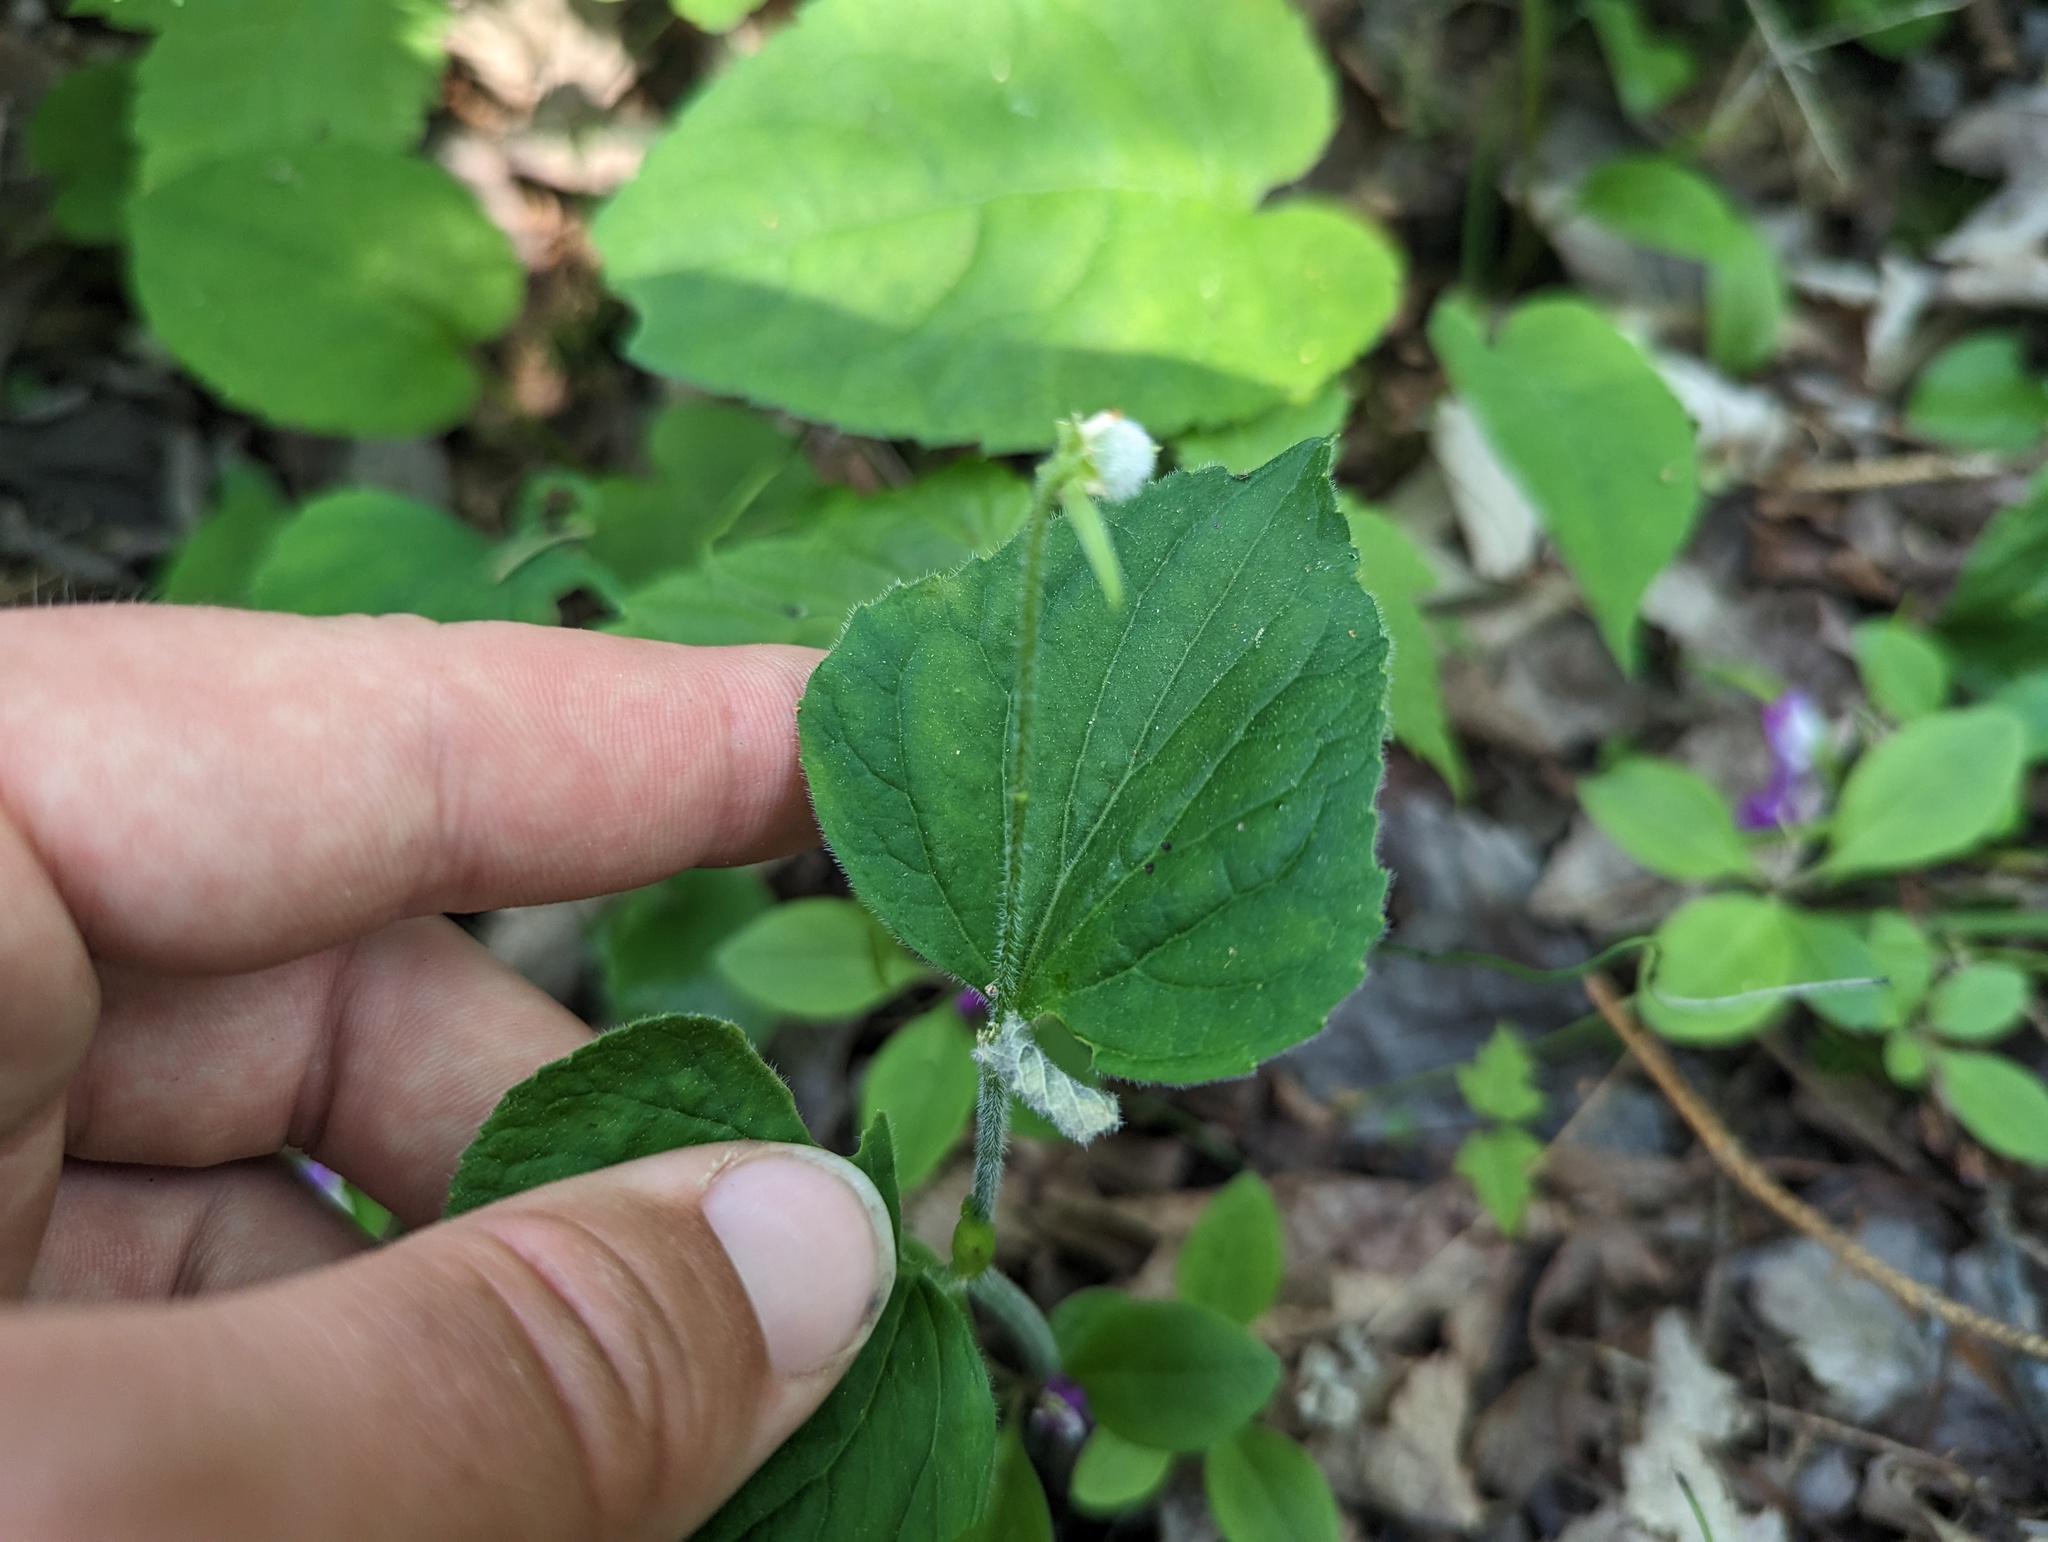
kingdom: Plantae
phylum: Tracheophyta
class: Magnoliopsida
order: Malpighiales
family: Violaceae
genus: Viola
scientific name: Viola pubescens
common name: Yellow forest violet
